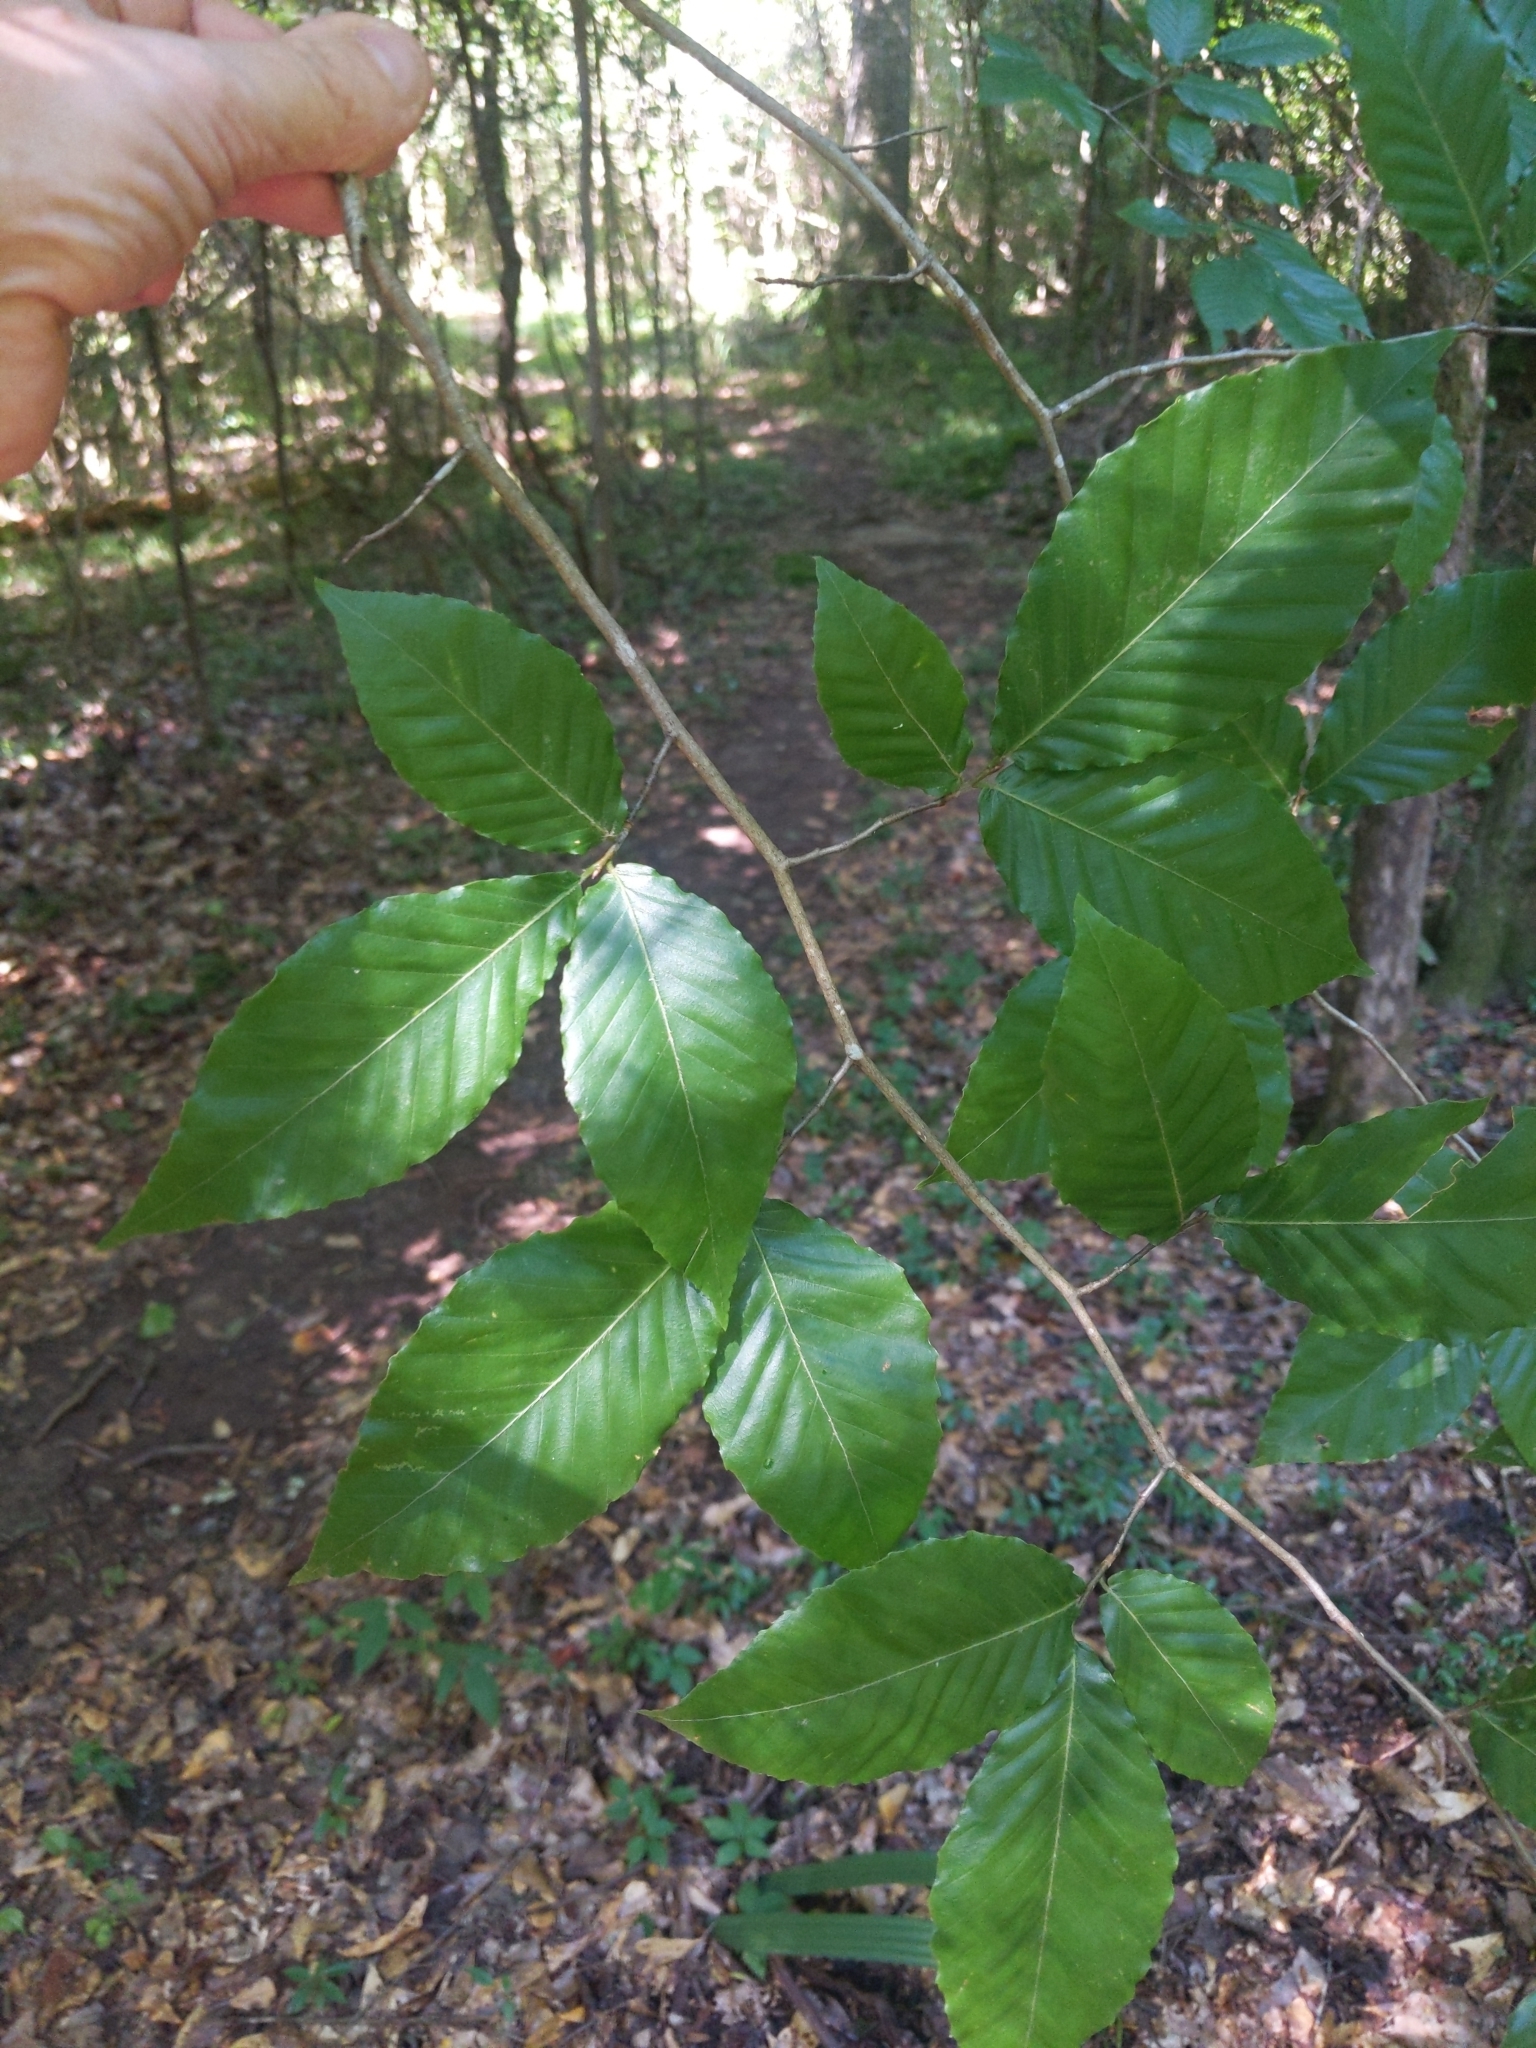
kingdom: Plantae
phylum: Tracheophyta
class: Magnoliopsida
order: Fagales
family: Fagaceae
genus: Fagus
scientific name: Fagus grandifolia
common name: American beech
